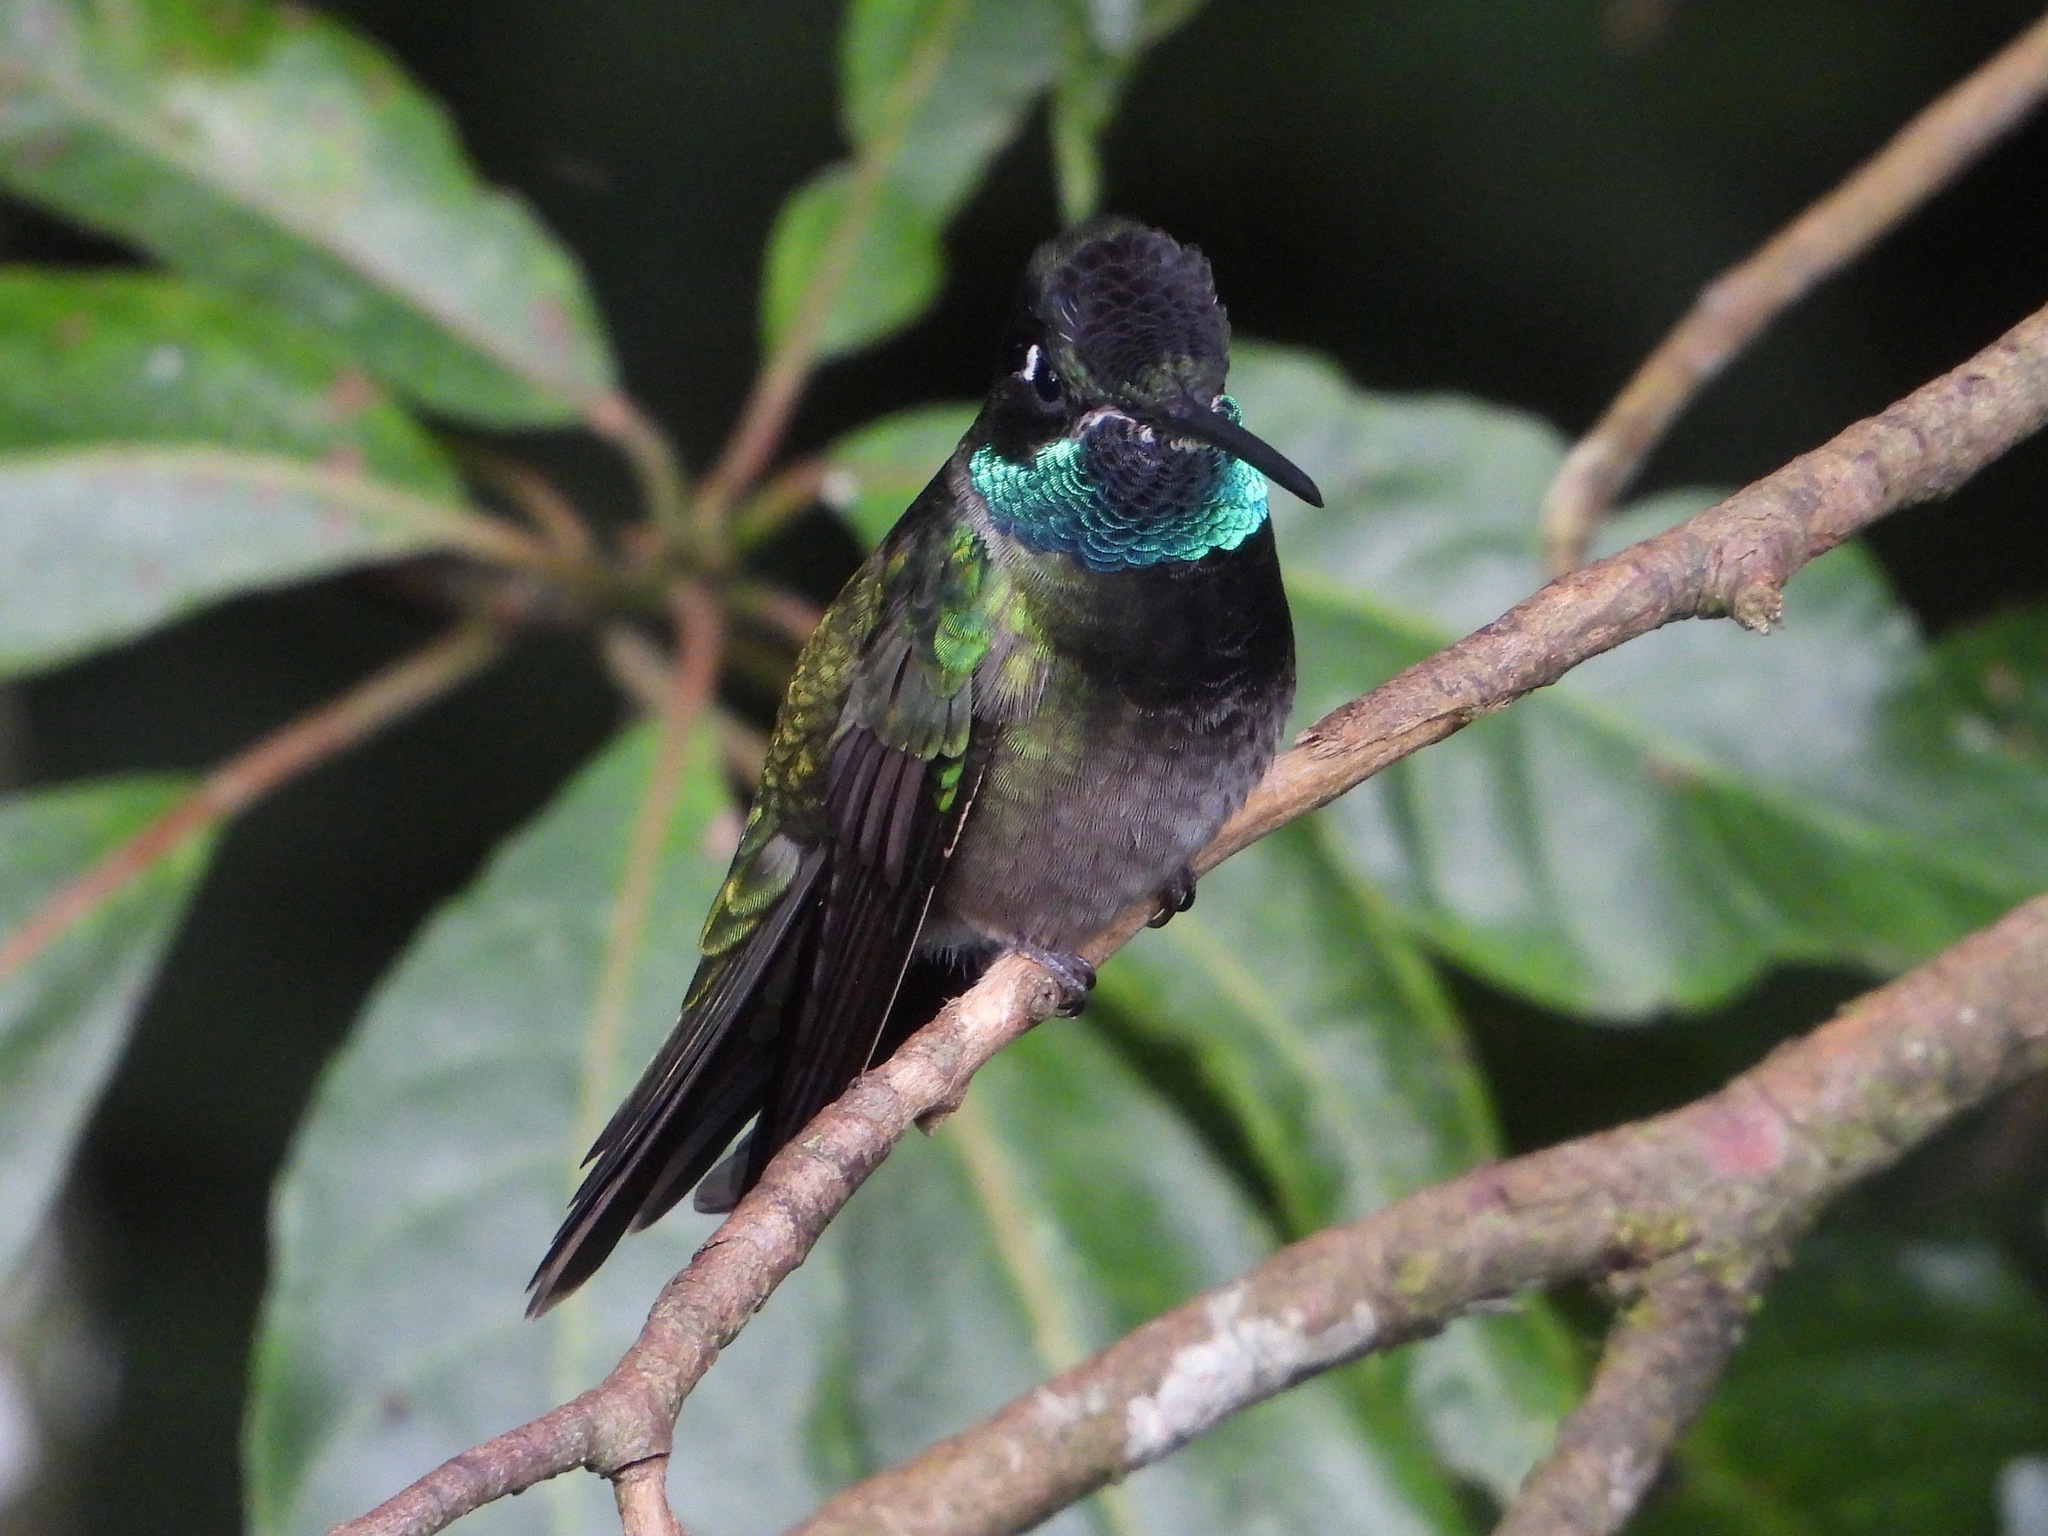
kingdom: Animalia
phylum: Chordata
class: Aves
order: Apodiformes
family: Trochilidae
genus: Eugenes
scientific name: Eugenes fulgens
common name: Magnificent hummingbird
